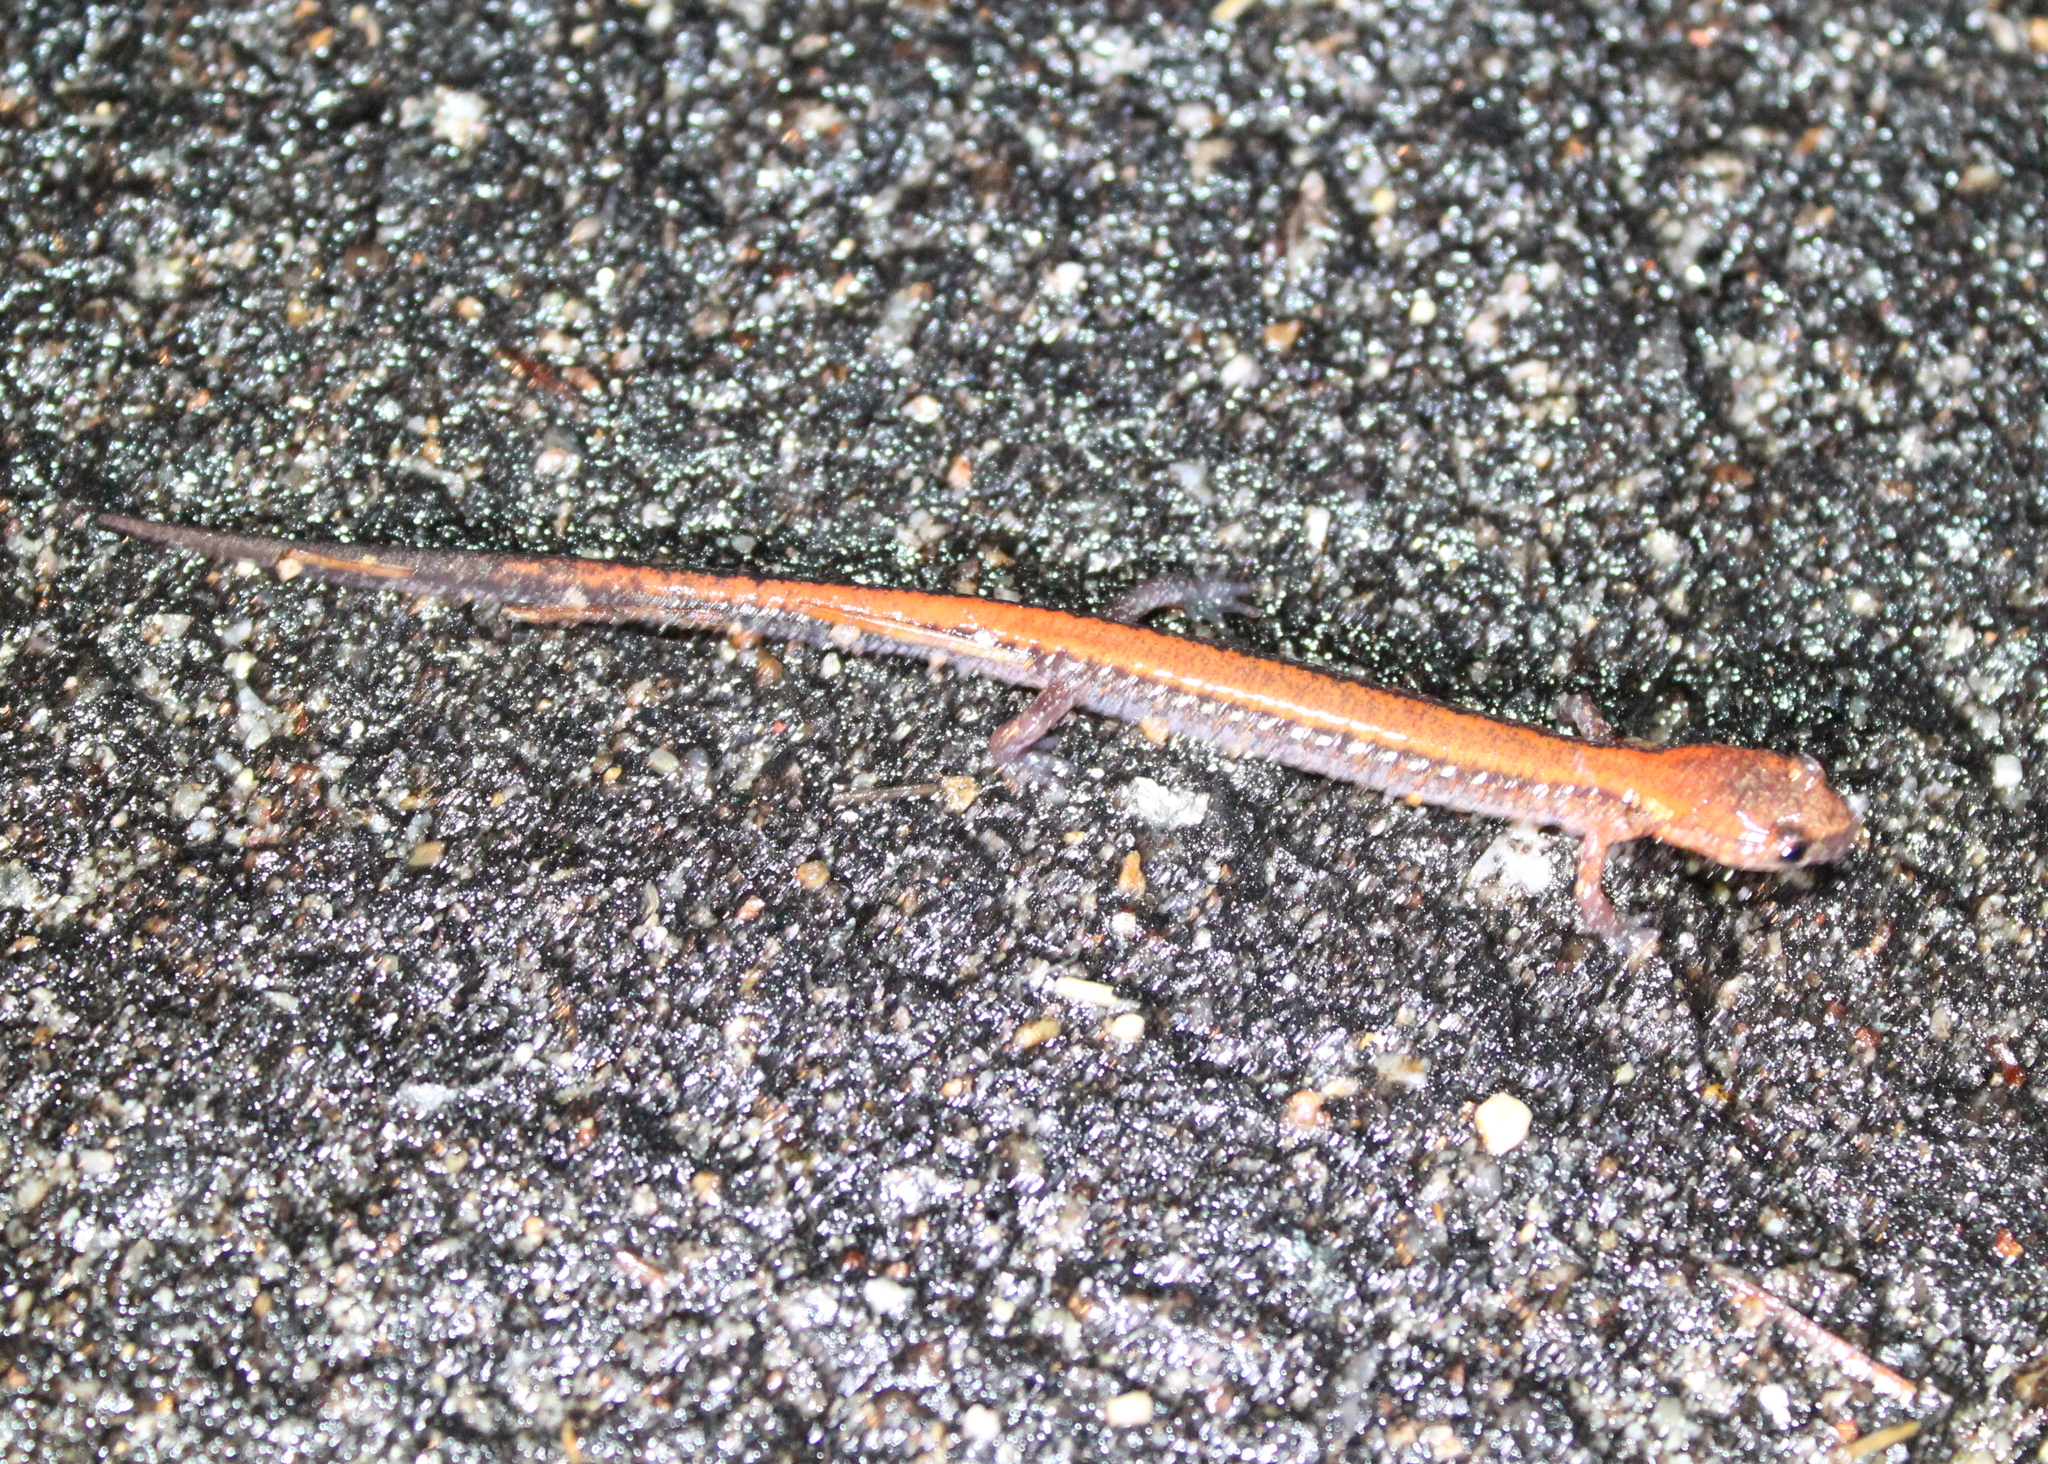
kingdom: Animalia
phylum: Chordata
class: Amphibia
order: Caudata
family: Plethodontidae
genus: Plethodon
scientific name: Plethodon cinereus
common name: Redback salamander
